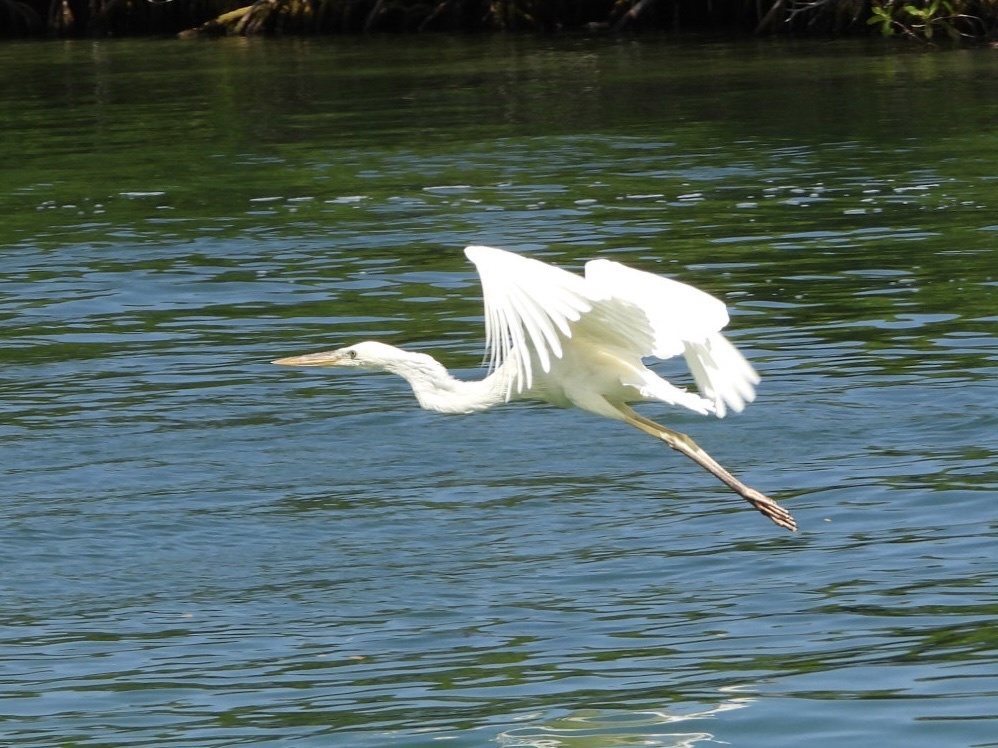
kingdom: Animalia
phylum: Chordata
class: Aves
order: Pelecaniformes
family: Ardeidae
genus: Ardea
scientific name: Ardea herodias
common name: Great blue heron
